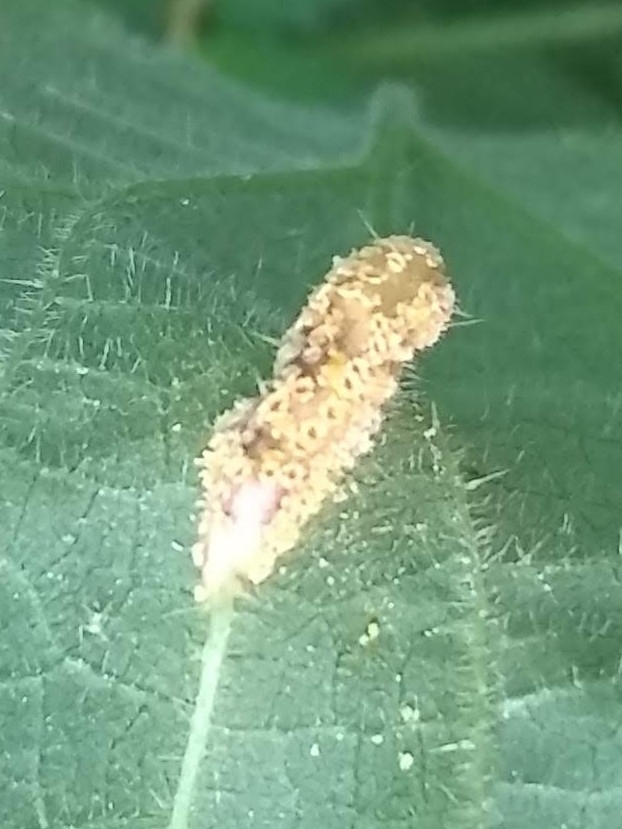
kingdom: Fungi
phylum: Basidiomycota
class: Pucciniomycetes
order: Pucciniales
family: Pucciniaceae
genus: Puccinia
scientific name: Puccinia urticata
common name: Nettle clustercup rust fungus
